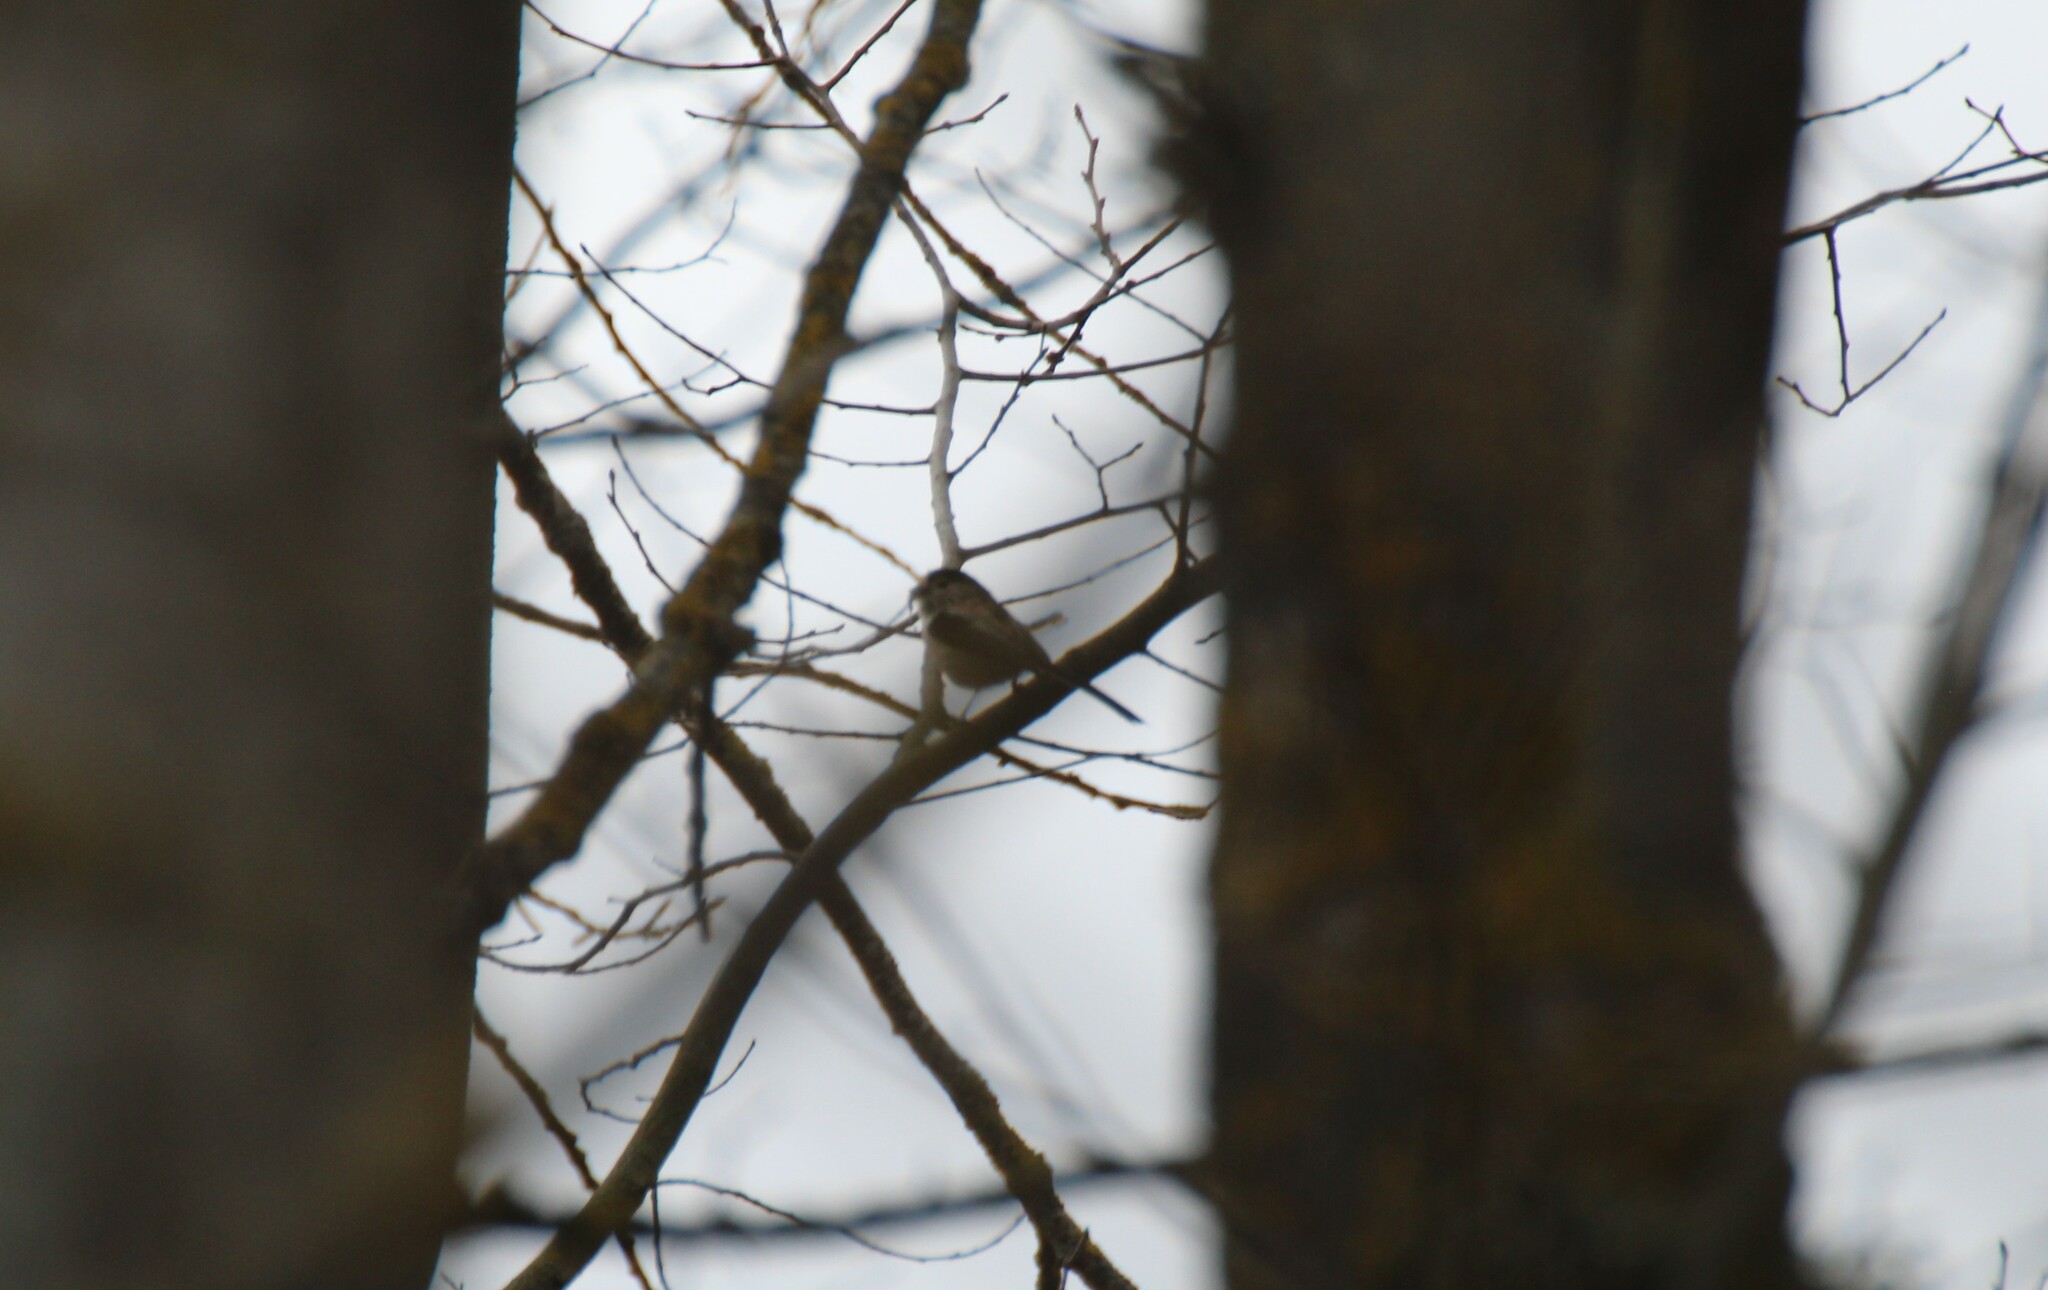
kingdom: Animalia
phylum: Chordata
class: Aves
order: Passeriformes
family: Aegithalidae
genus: Aegithalos
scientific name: Aegithalos caudatus
